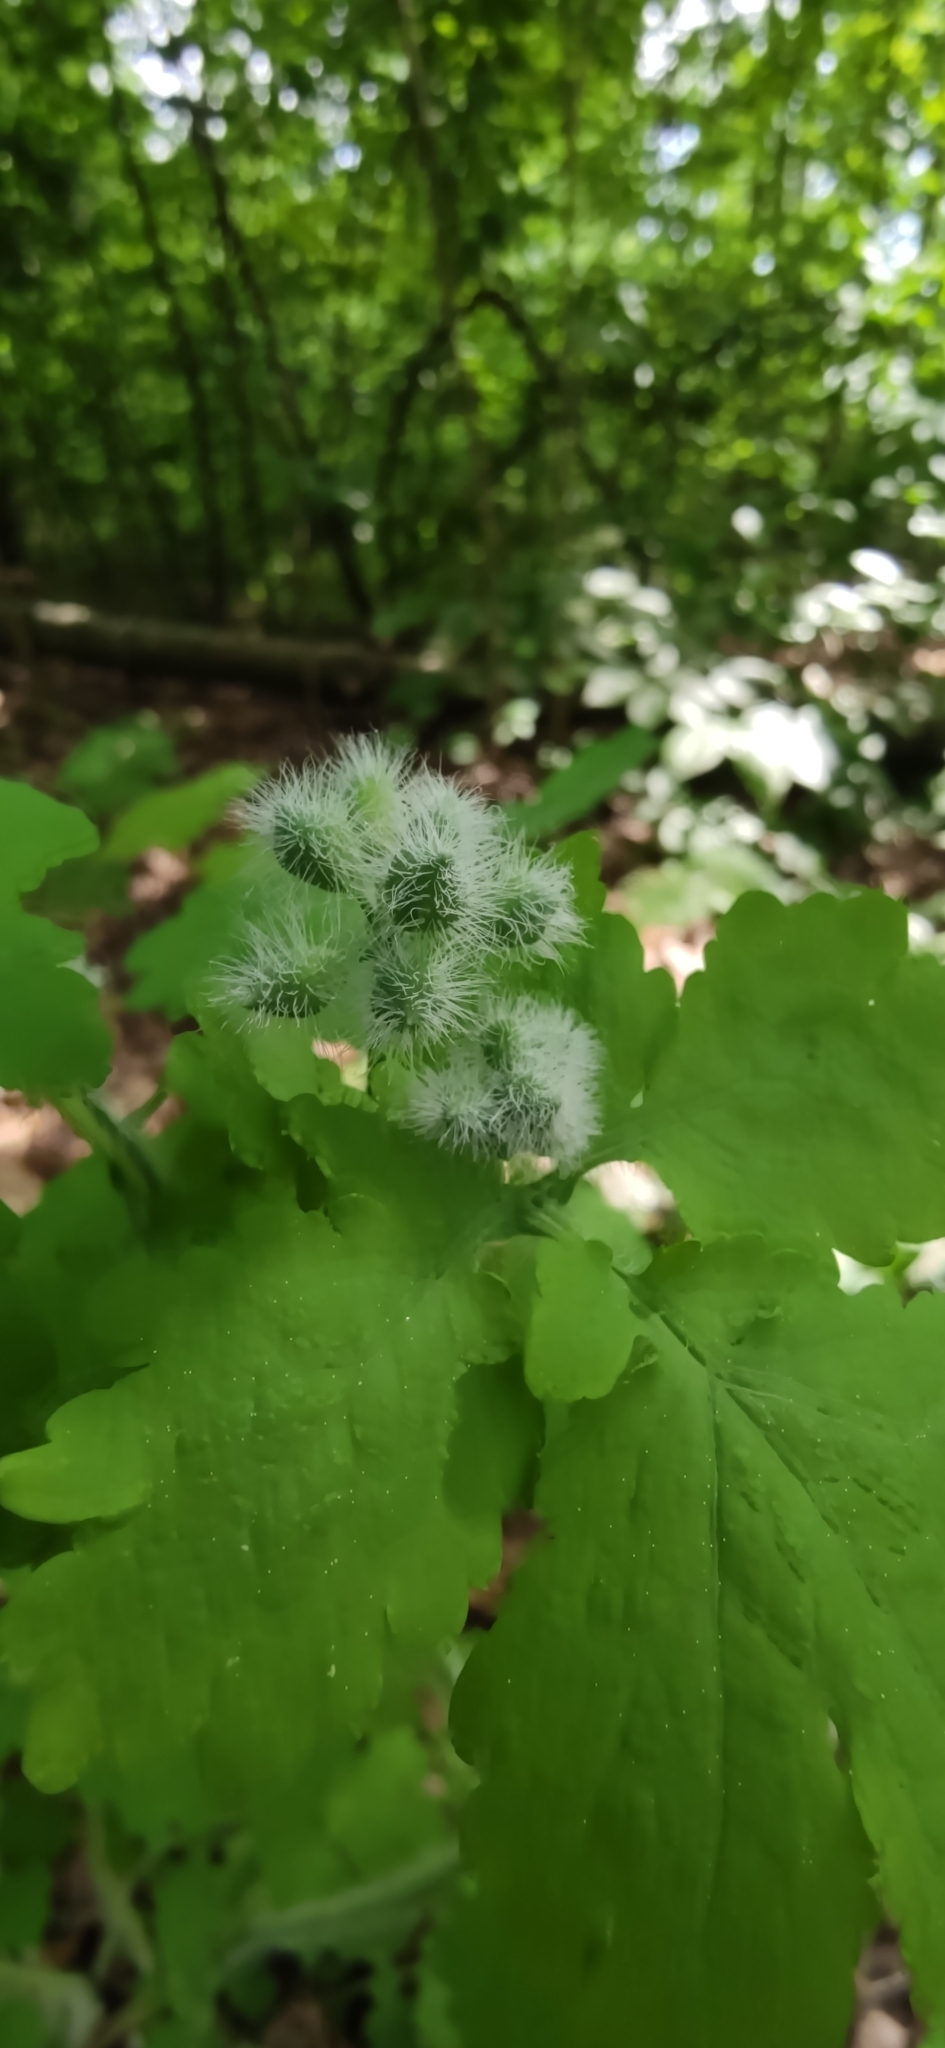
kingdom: Plantae
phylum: Tracheophyta
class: Magnoliopsida
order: Ranunculales
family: Papaveraceae
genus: Chelidonium
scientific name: Chelidonium majus
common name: Greater celandine
